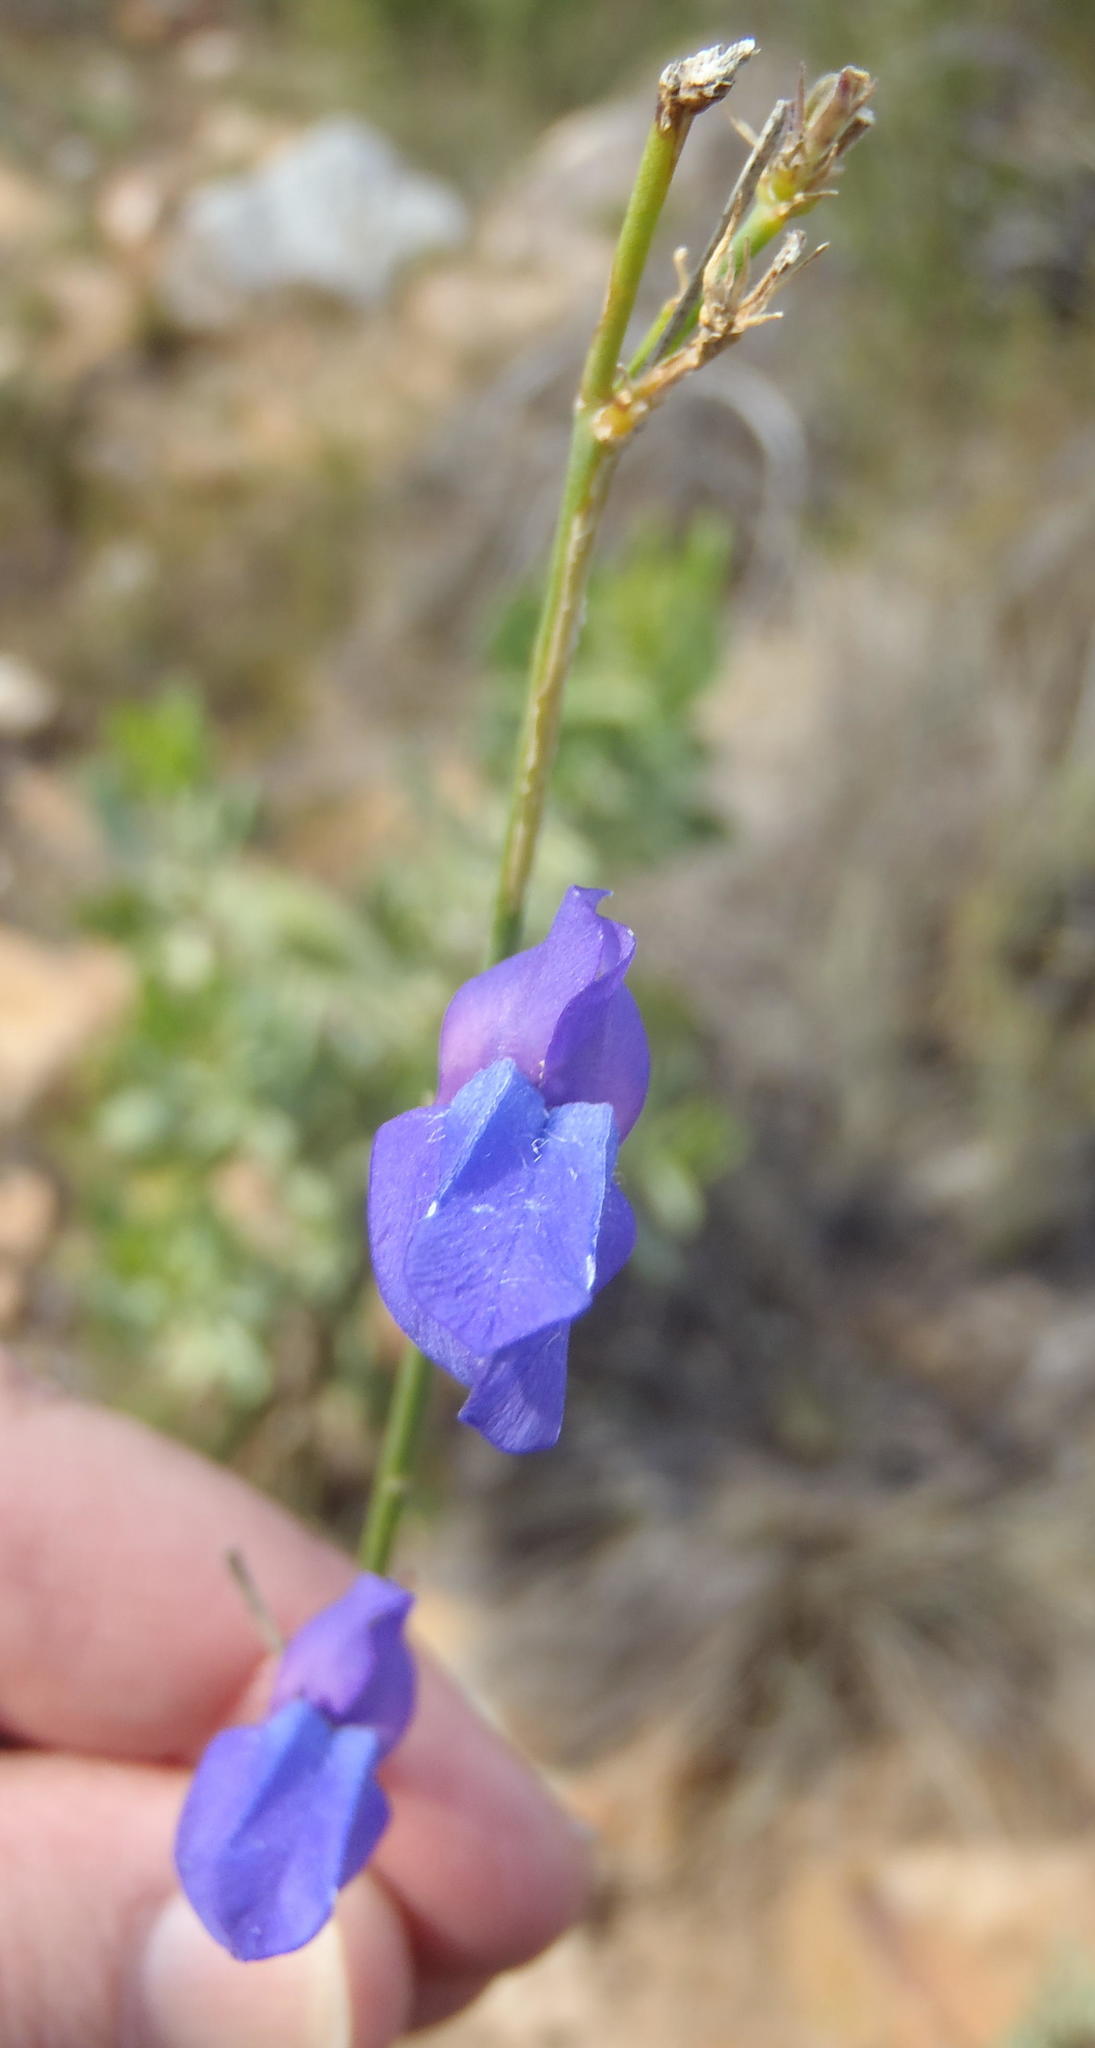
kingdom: Plantae
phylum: Tracheophyta
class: Magnoliopsida
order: Asterales
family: Campanulaceae
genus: Lobelia
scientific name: Lobelia linearis
